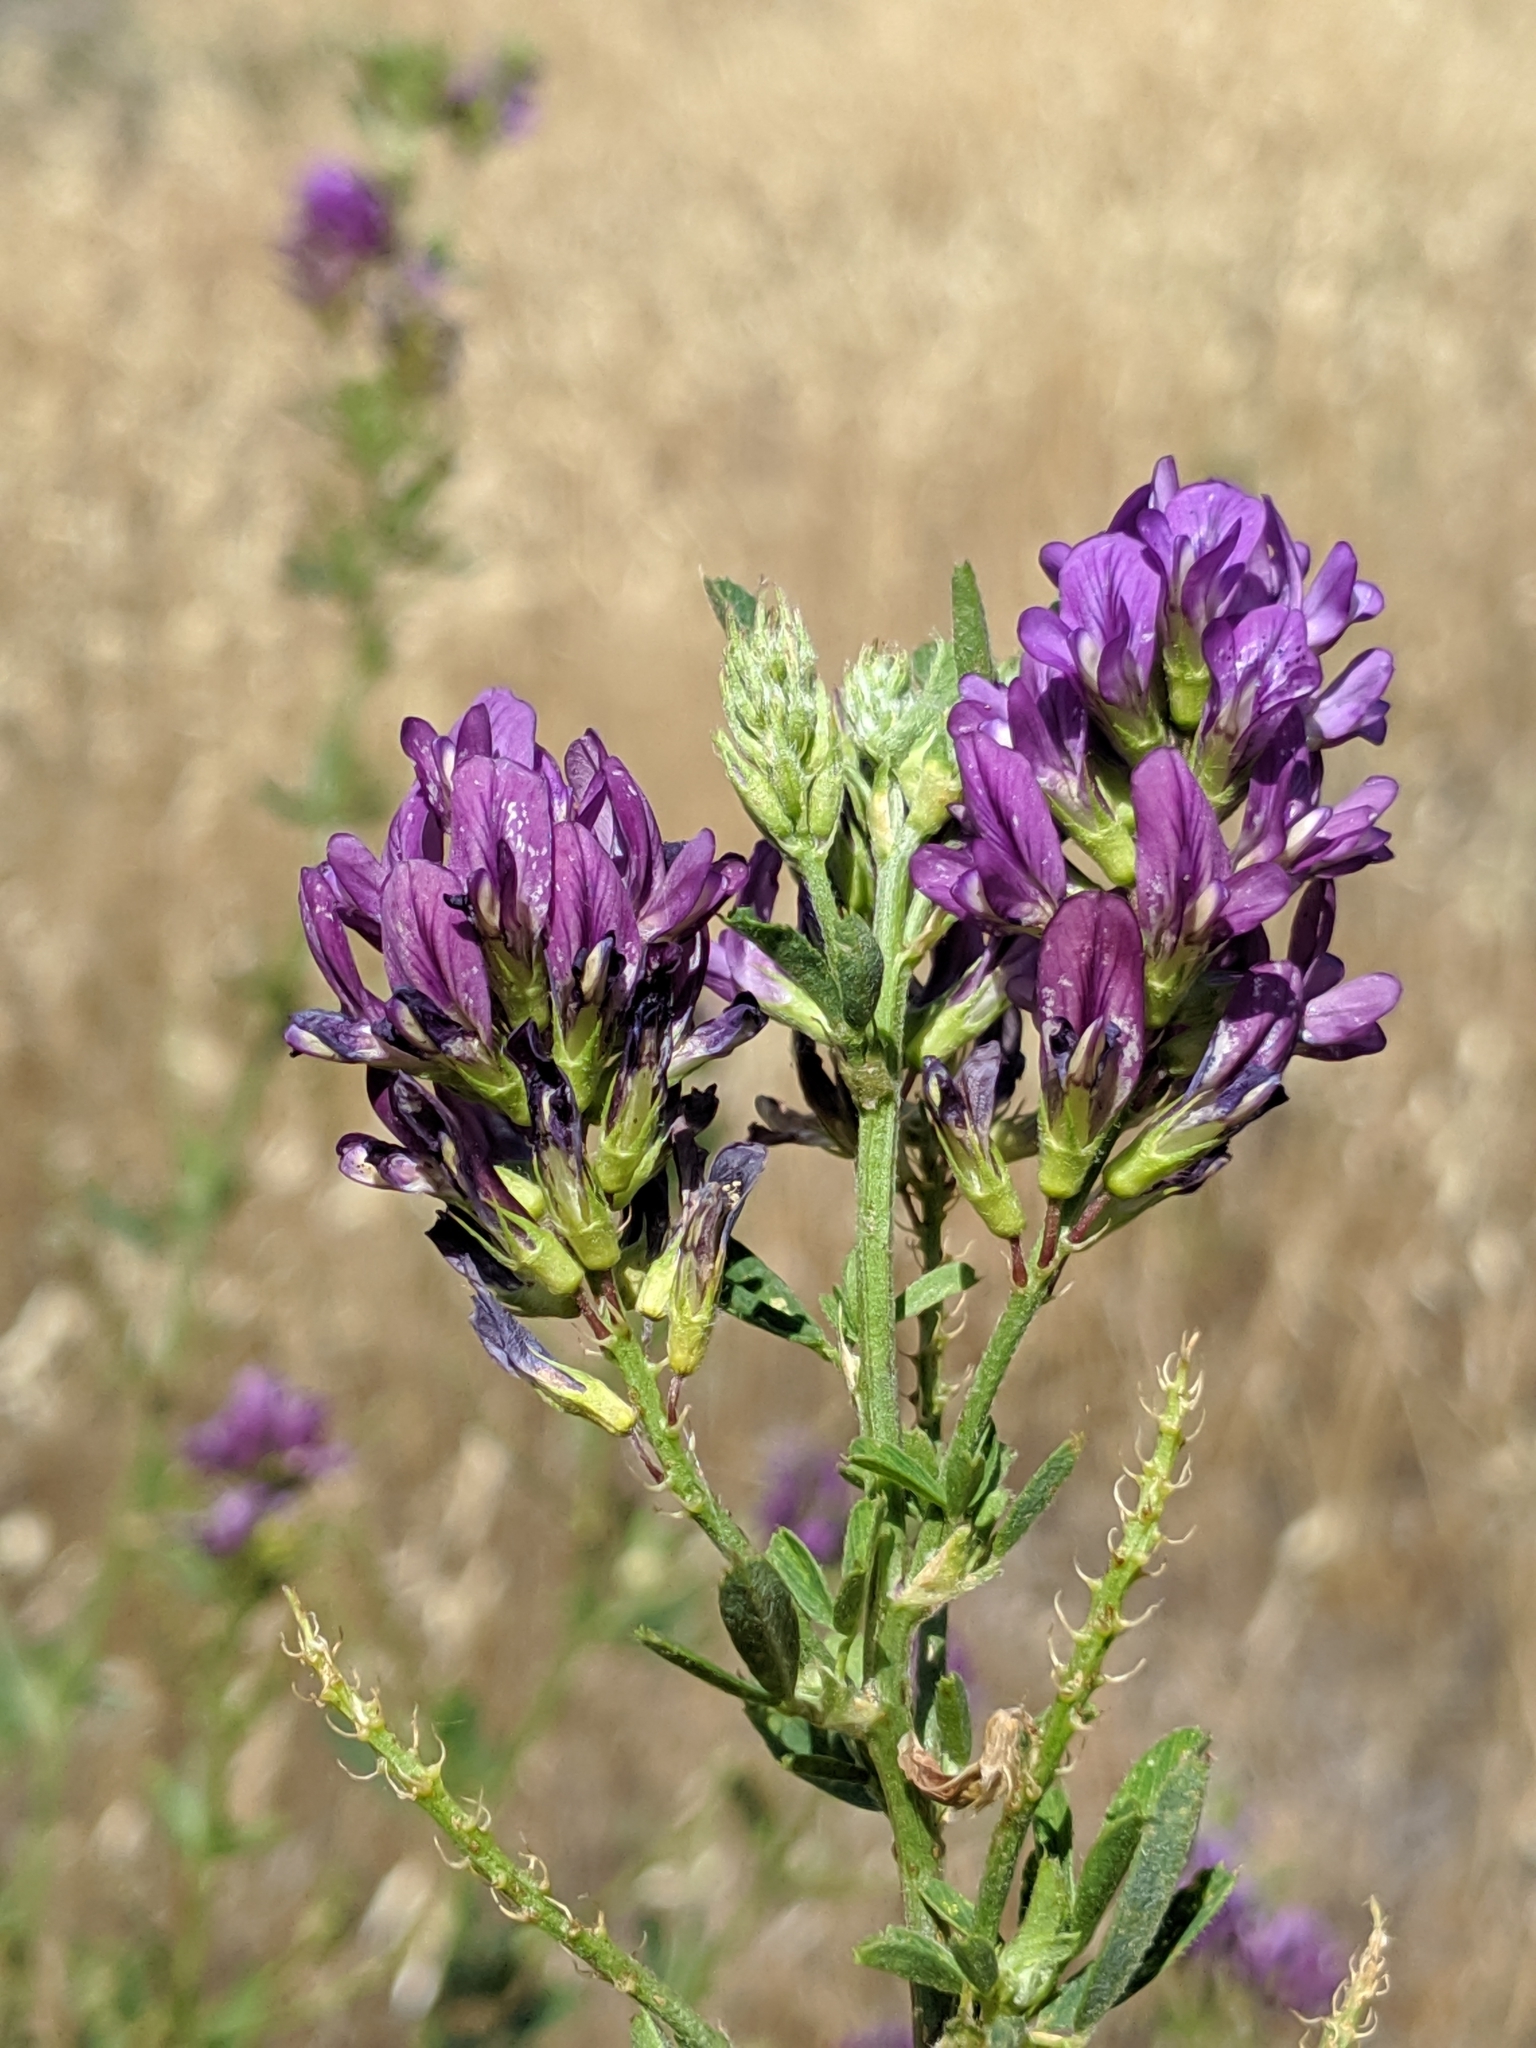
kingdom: Plantae
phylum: Tracheophyta
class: Magnoliopsida
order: Fabales
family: Fabaceae
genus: Medicago
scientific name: Medicago sativa
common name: Alfalfa
